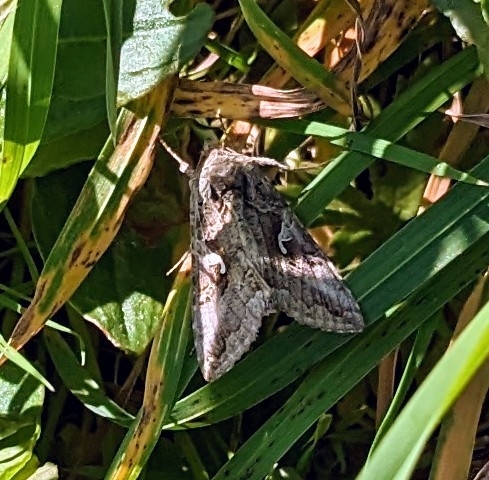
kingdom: Animalia
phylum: Arthropoda
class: Insecta
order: Lepidoptera
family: Noctuidae
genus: Autographa
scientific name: Autographa gamma
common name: Silver y
